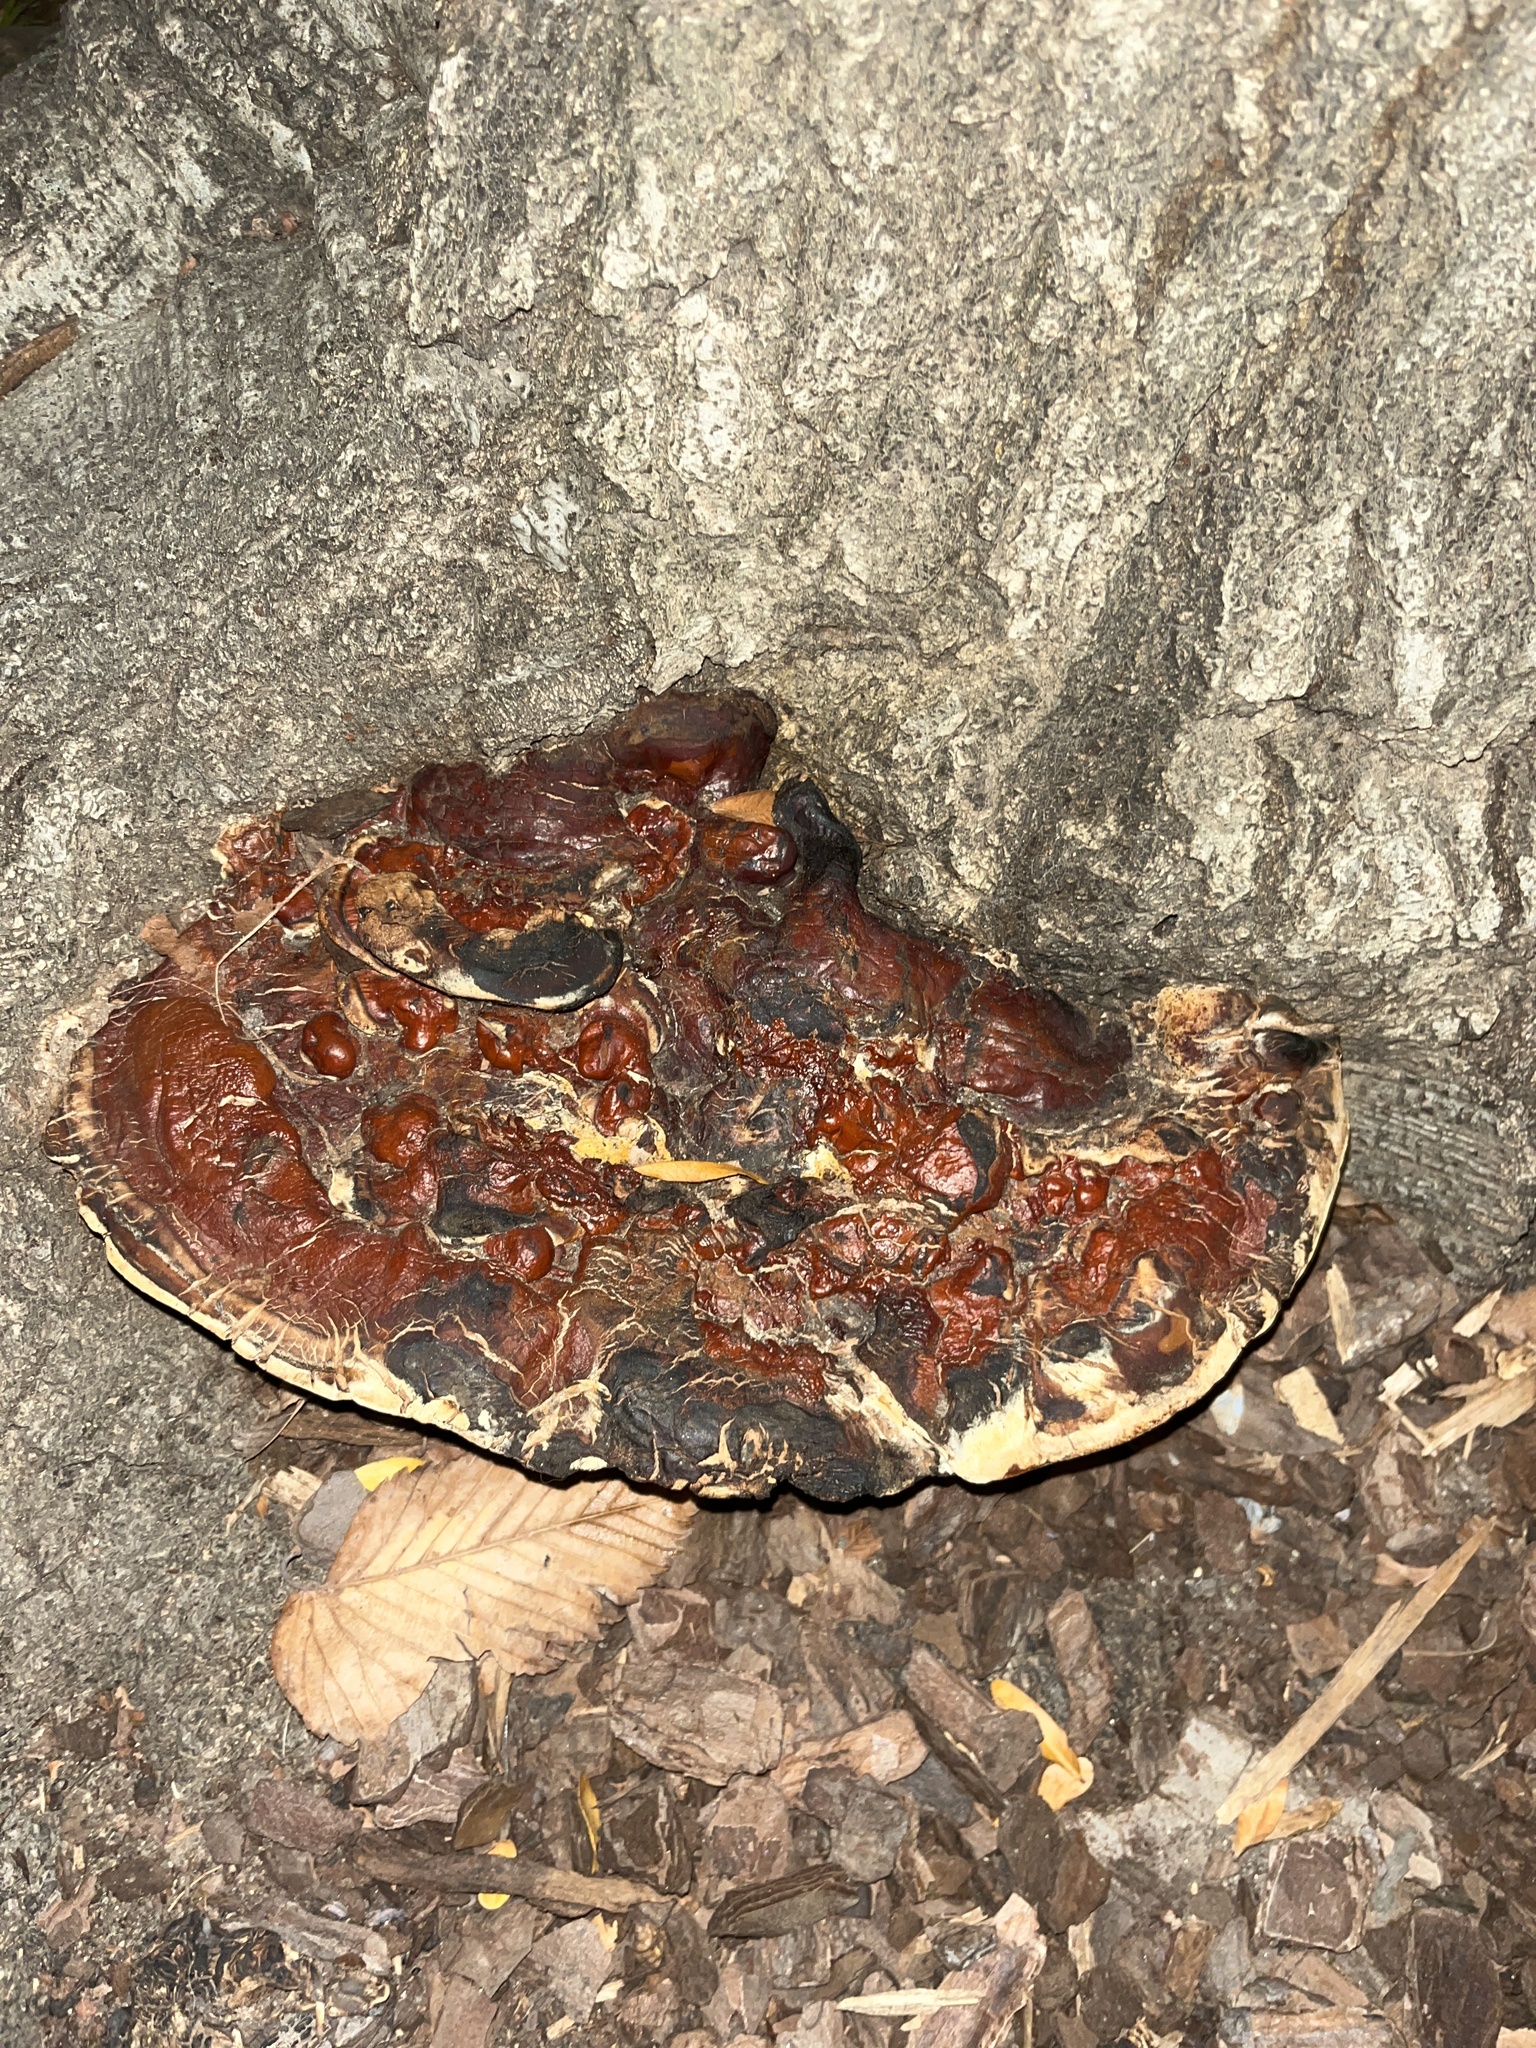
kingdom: Fungi
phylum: Basidiomycota
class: Agaricomycetes
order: Polyporales
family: Polyporaceae
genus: Ganoderma
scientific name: Ganoderma resinaceum
